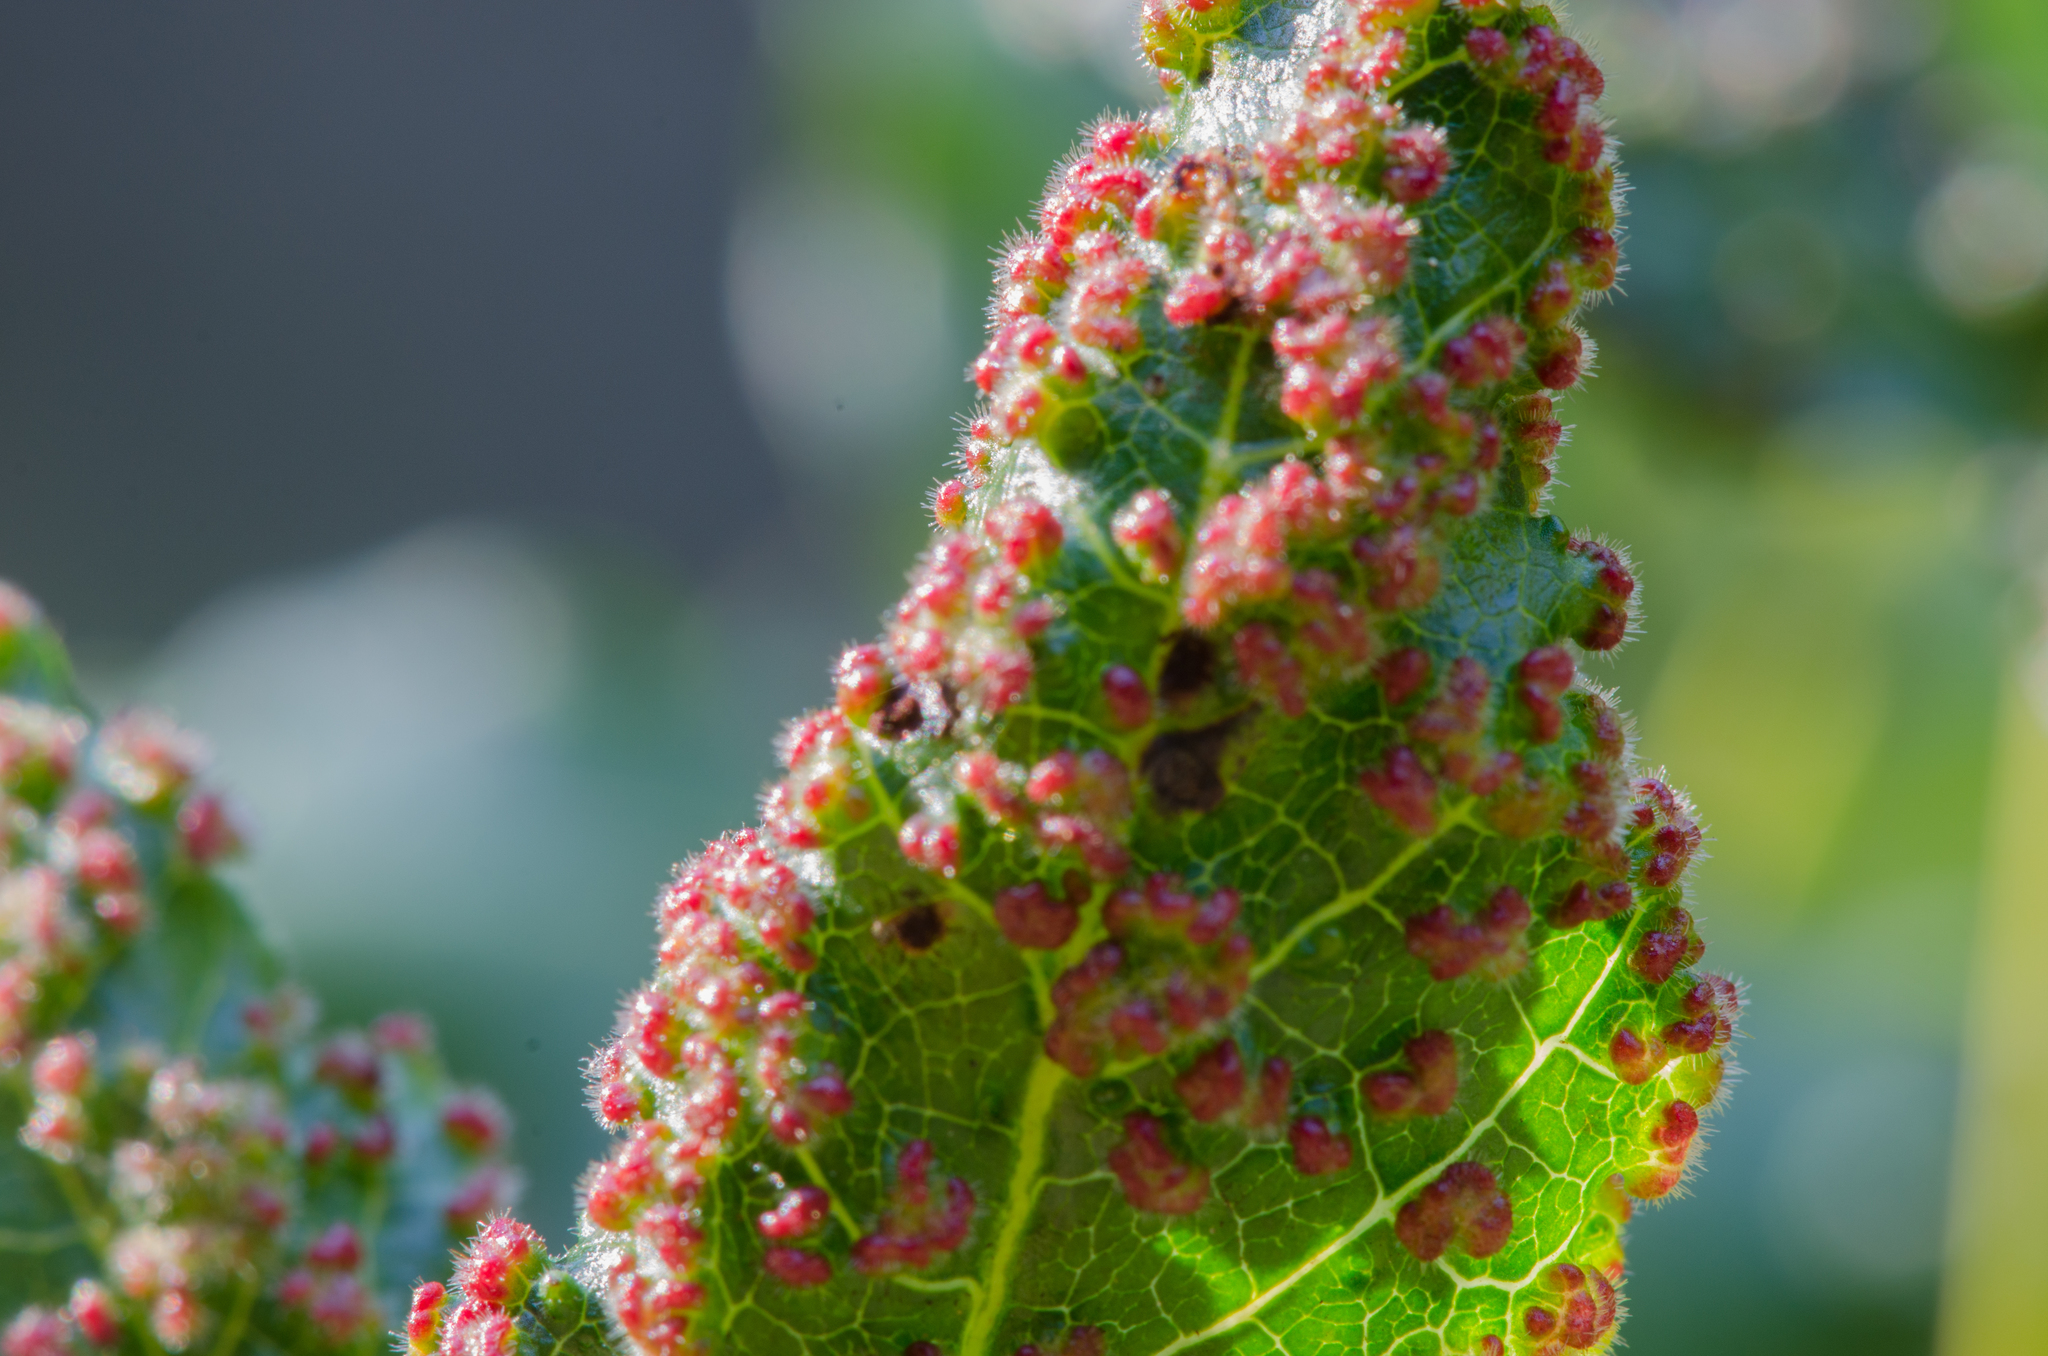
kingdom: Animalia
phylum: Arthropoda
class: Arachnida
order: Trombidiformes
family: Eriophyidae
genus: Aculops
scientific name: Aculops
